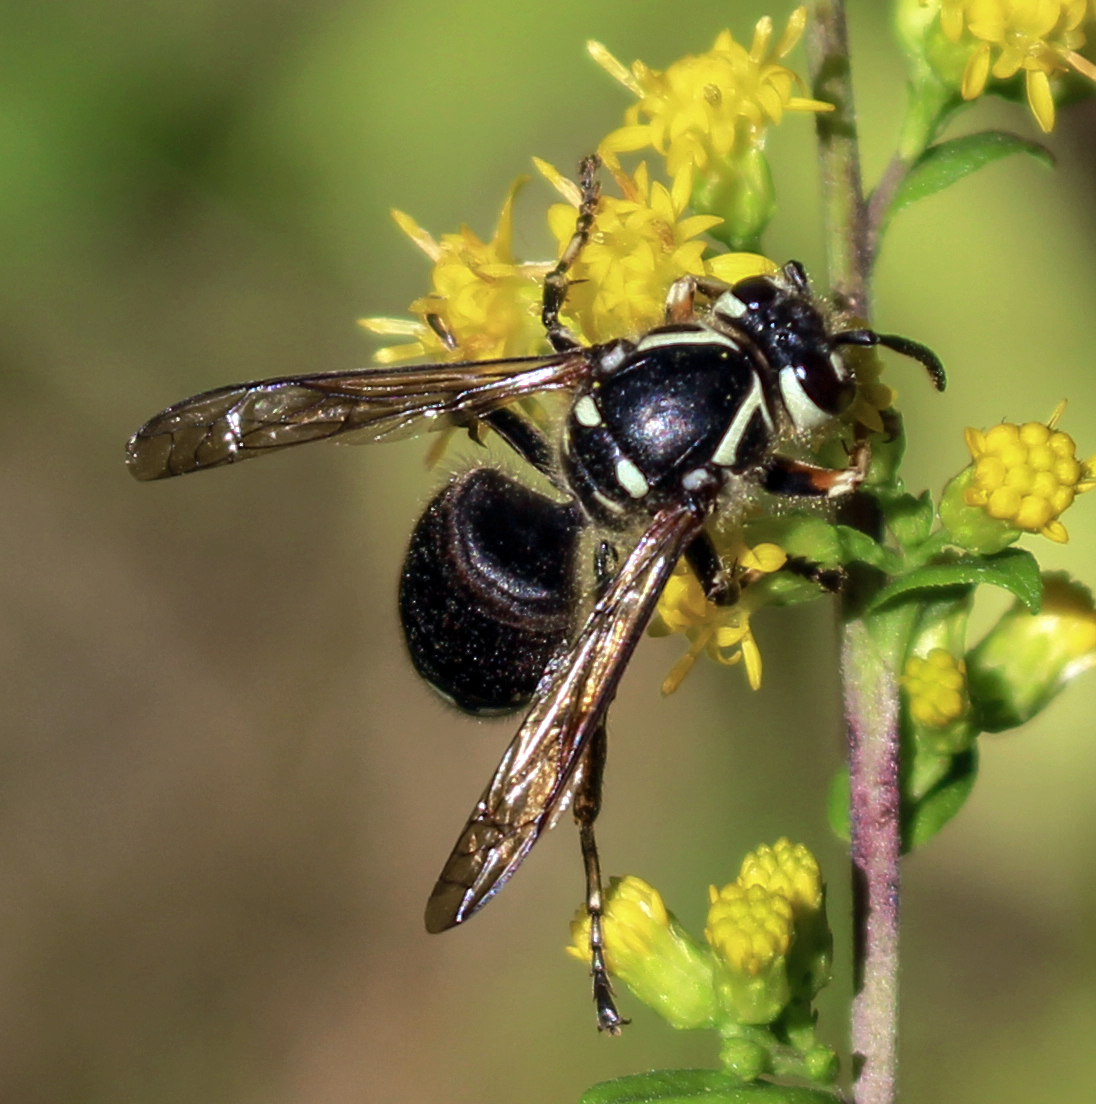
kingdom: Animalia
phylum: Arthropoda
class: Insecta
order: Hymenoptera
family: Vespidae
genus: Dolichovespula
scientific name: Dolichovespula maculata
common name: Bald-faced hornet
